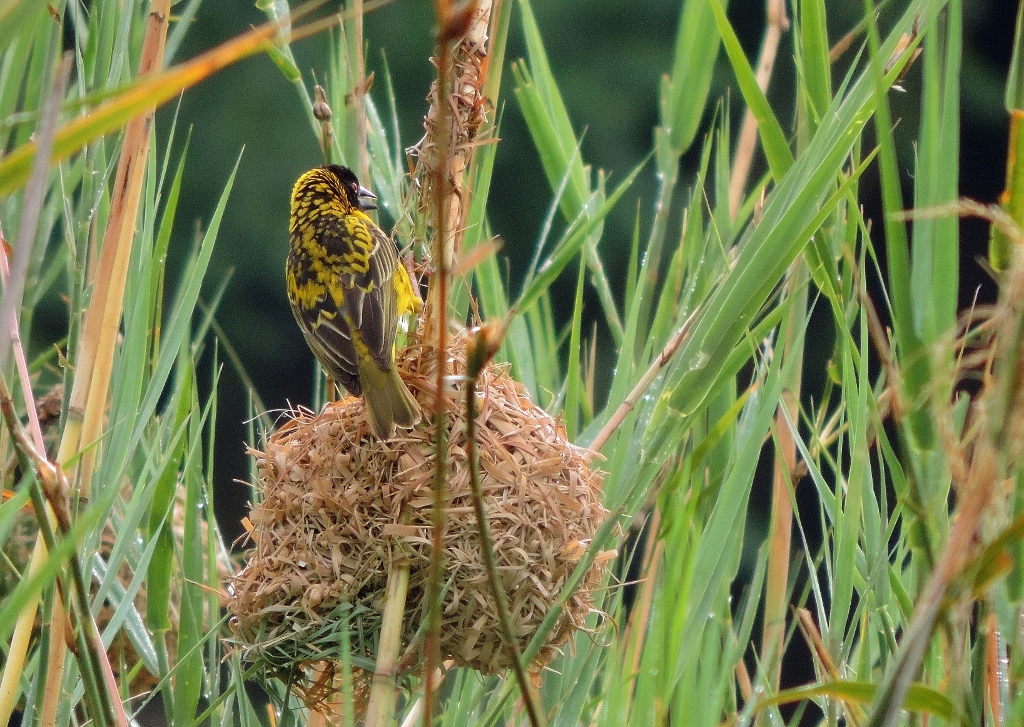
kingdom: Animalia
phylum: Chordata
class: Aves
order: Passeriformes
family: Ploceidae
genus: Ploceus
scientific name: Ploceus cucullatus
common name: Village weaver
